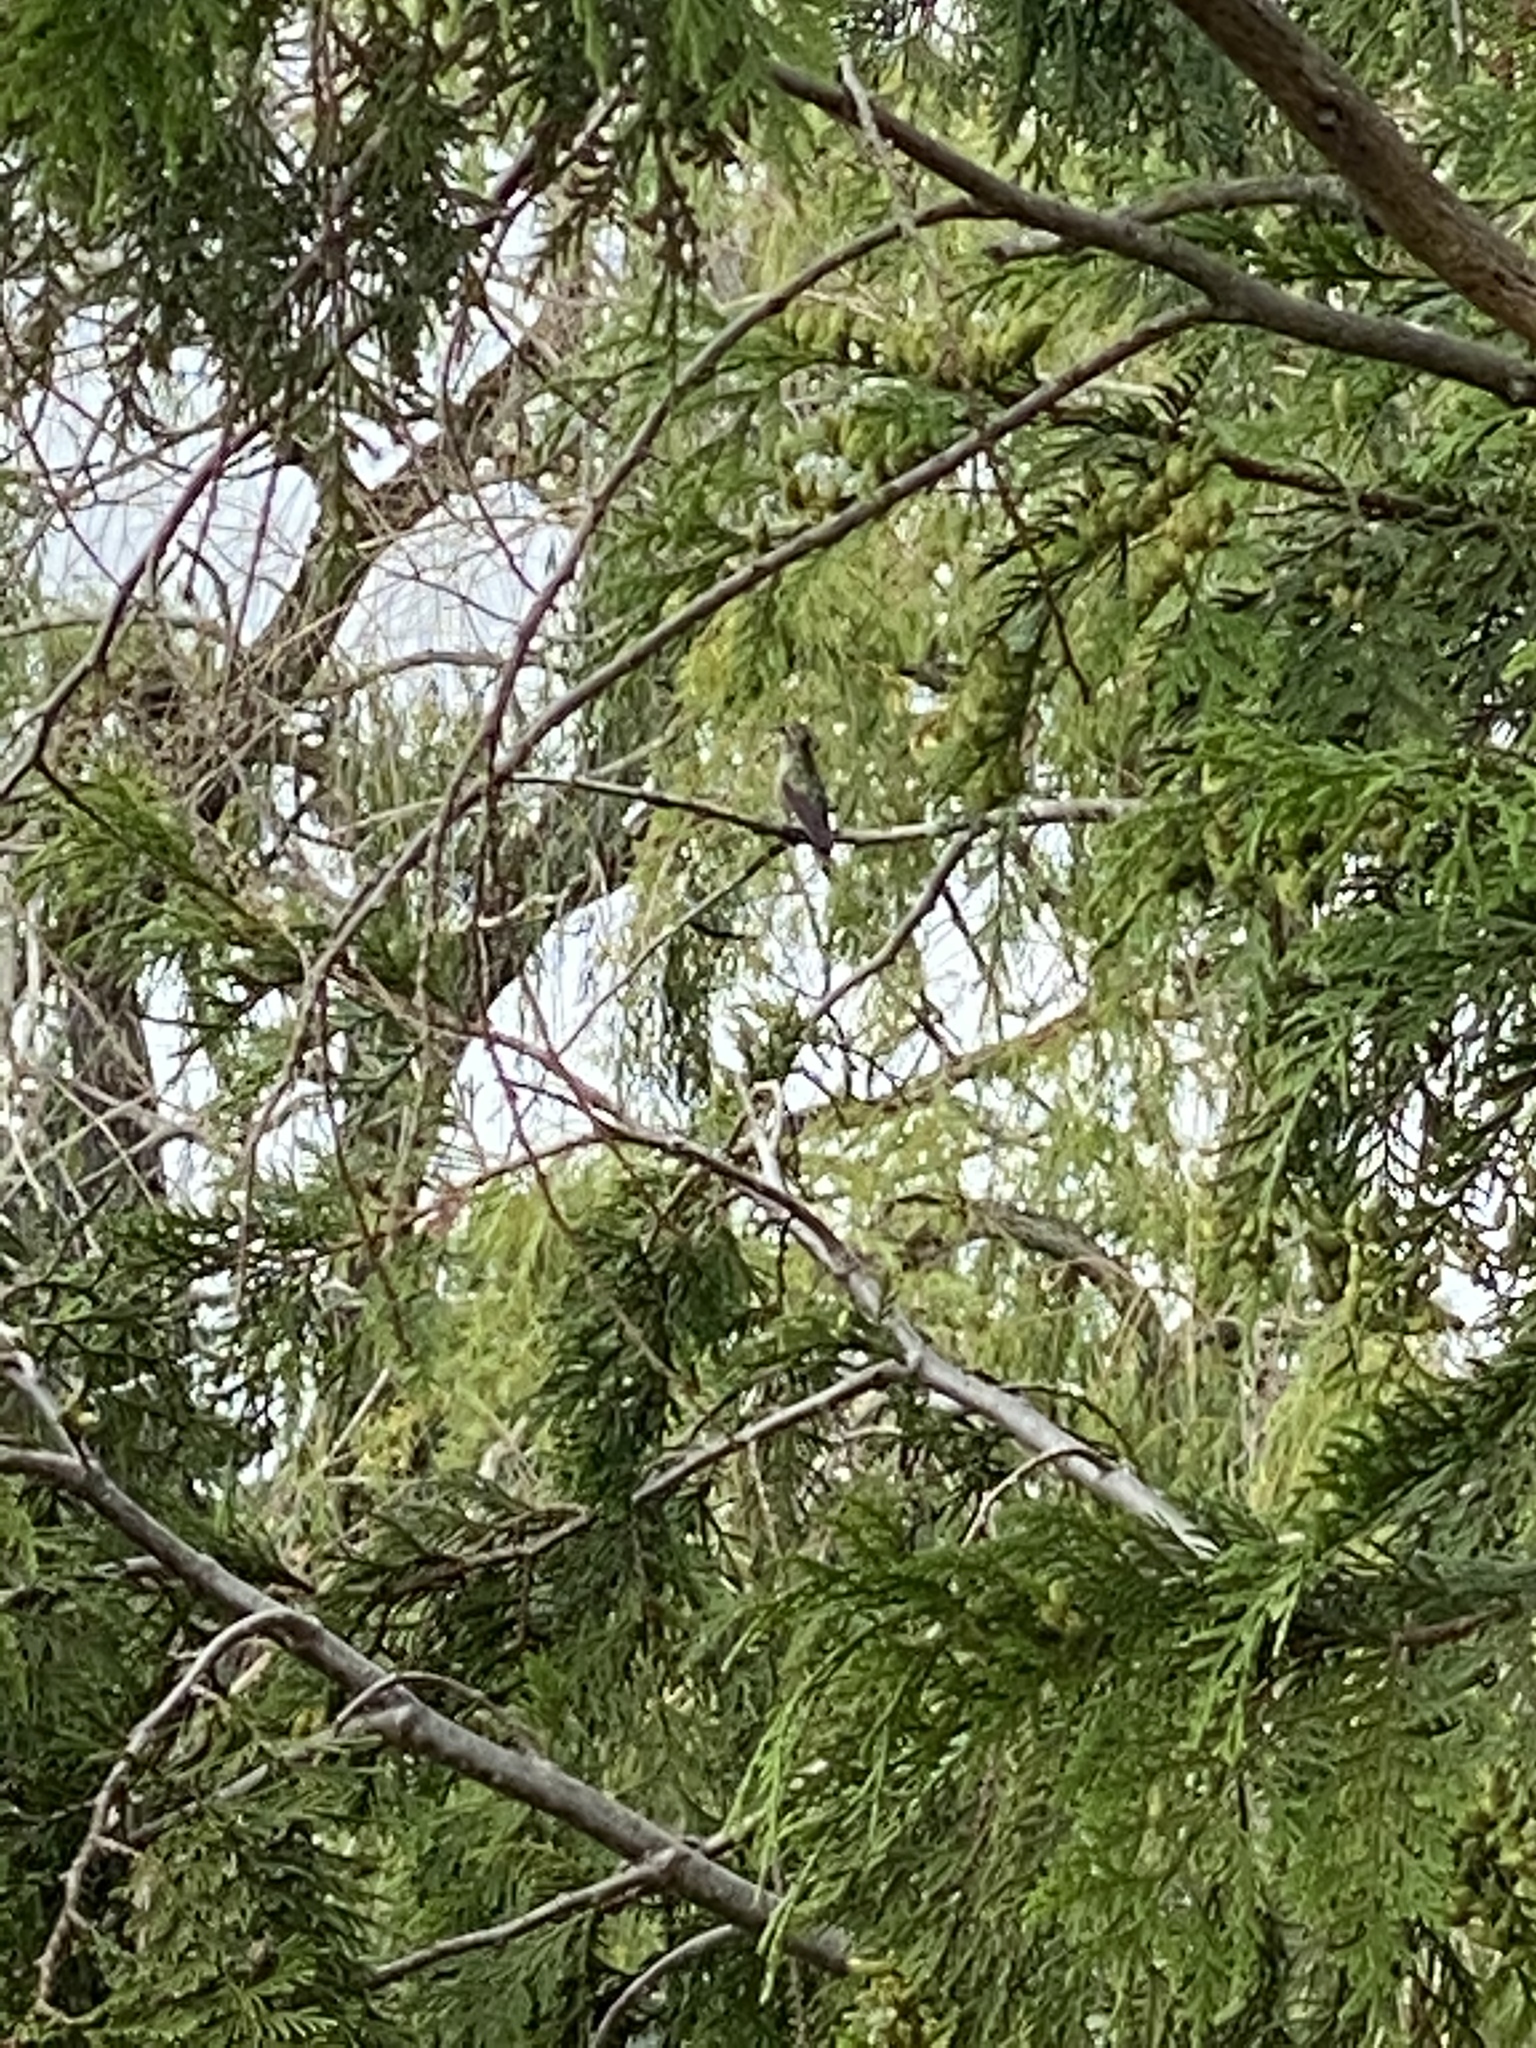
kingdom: Animalia
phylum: Chordata
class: Aves
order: Apodiformes
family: Trochilidae
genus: Calypte
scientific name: Calypte anna
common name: Anna's hummingbird
